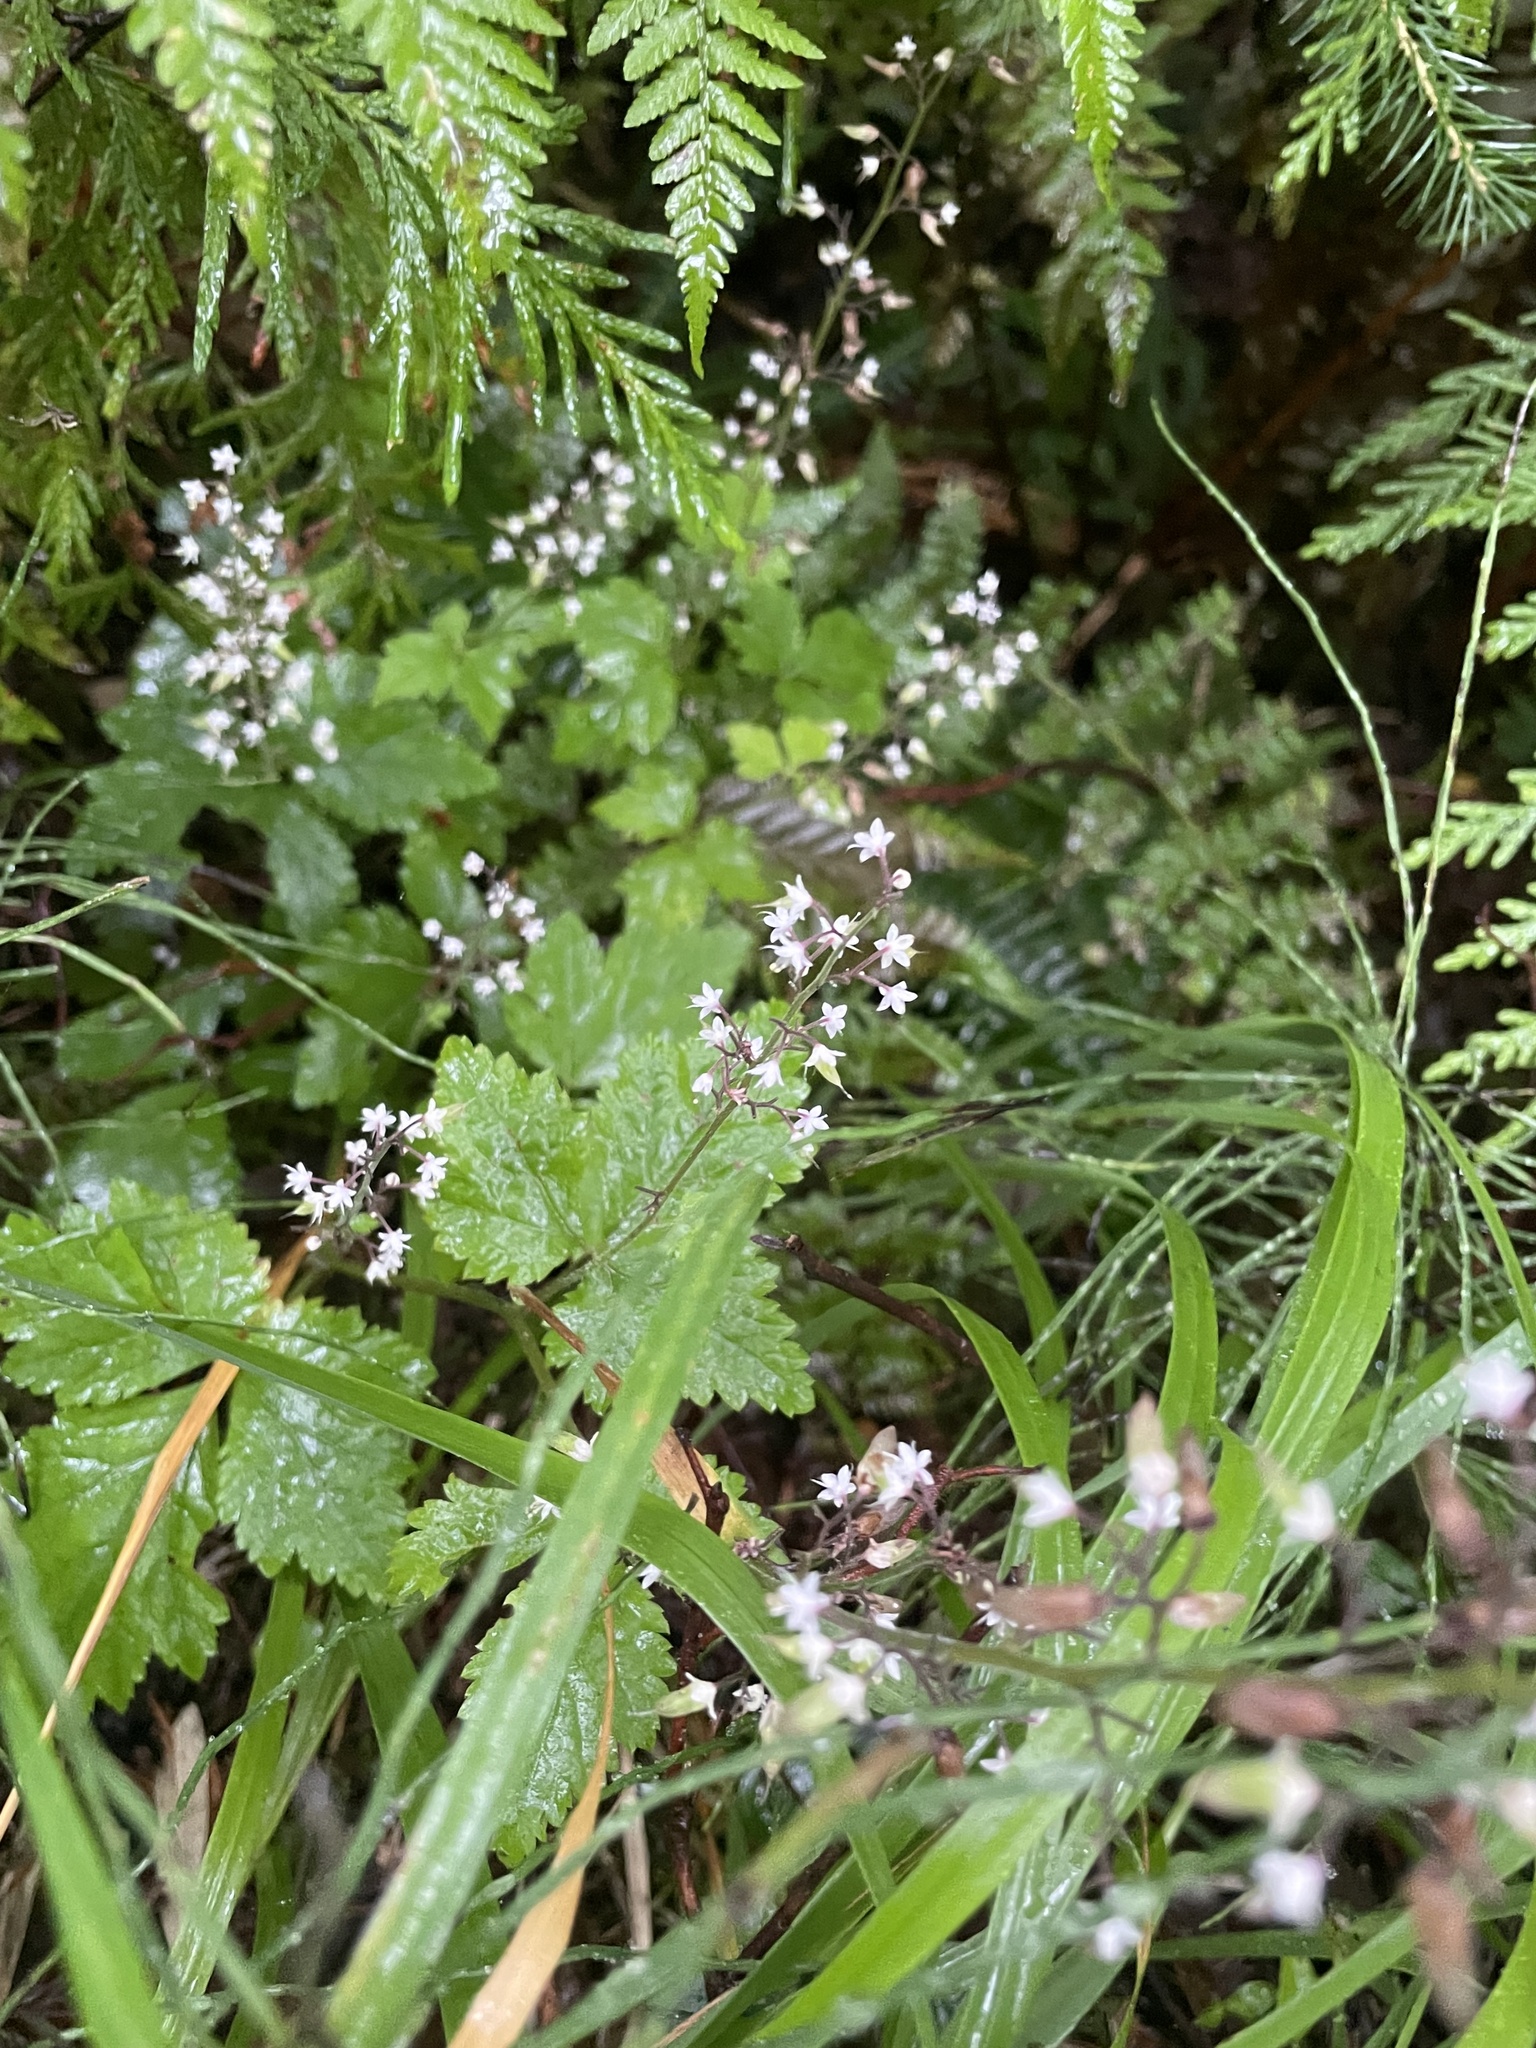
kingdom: Plantae
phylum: Tracheophyta
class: Magnoliopsida
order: Saxifragales
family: Saxifragaceae
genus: Tiarella
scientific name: Tiarella trifoliata
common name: Sugar-scoop
